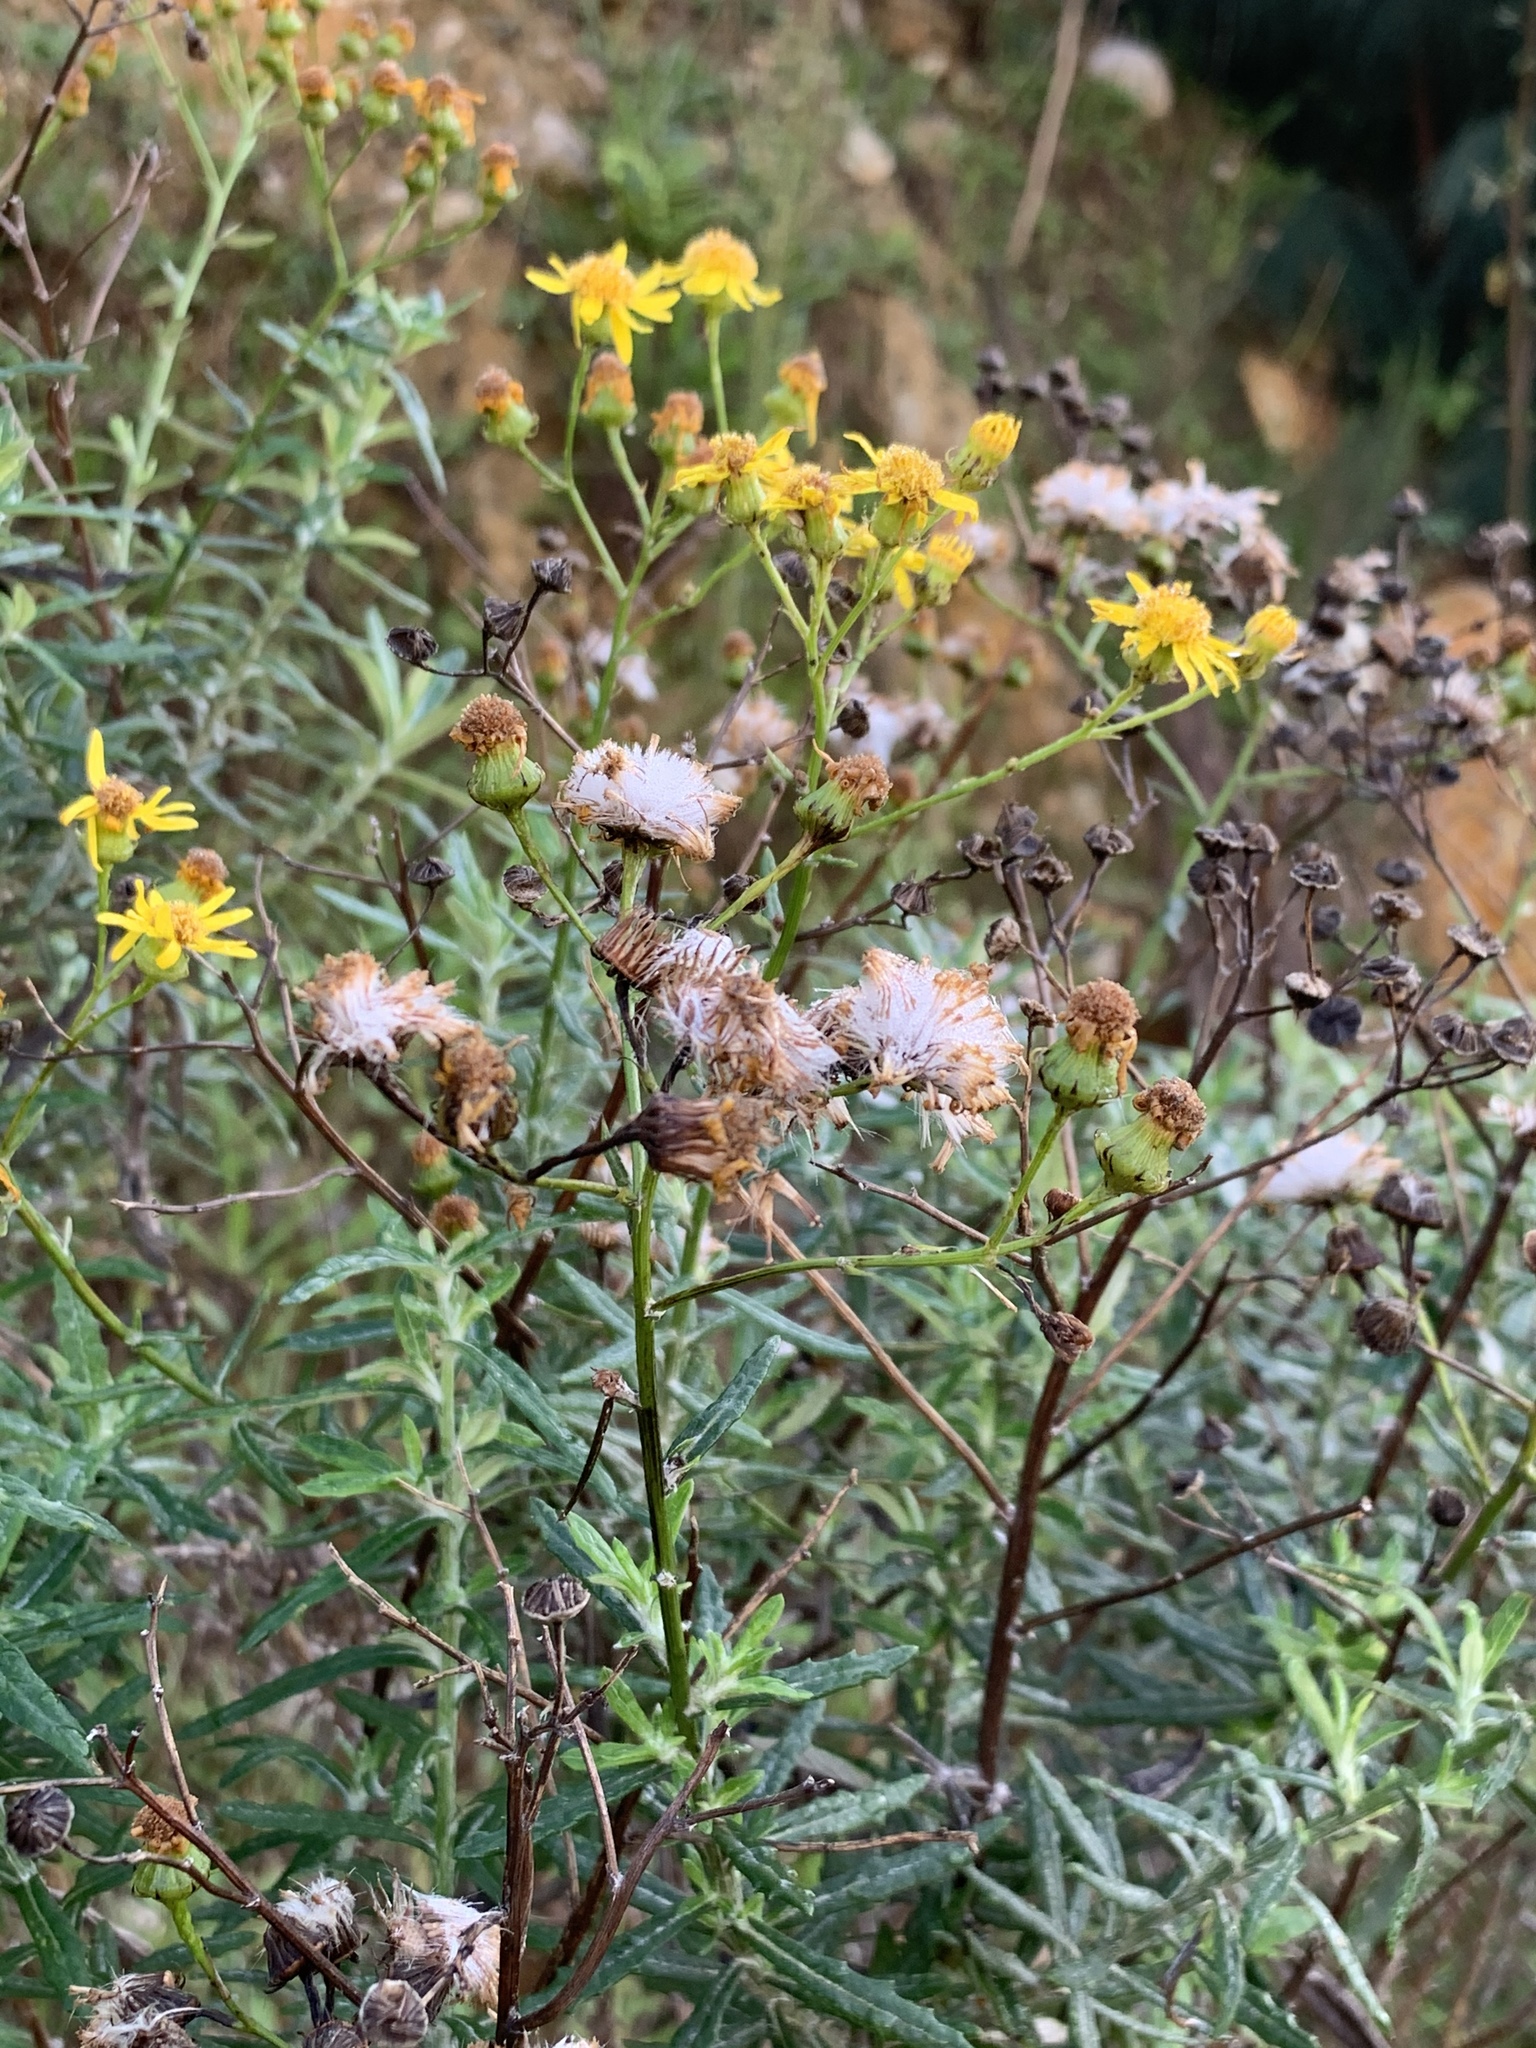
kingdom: Plantae
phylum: Tracheophyta
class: Magnoliopsida
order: Asterales
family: Asteraceae
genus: Senecio
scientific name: Senecio pterophorus
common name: Shoddy ragwort
